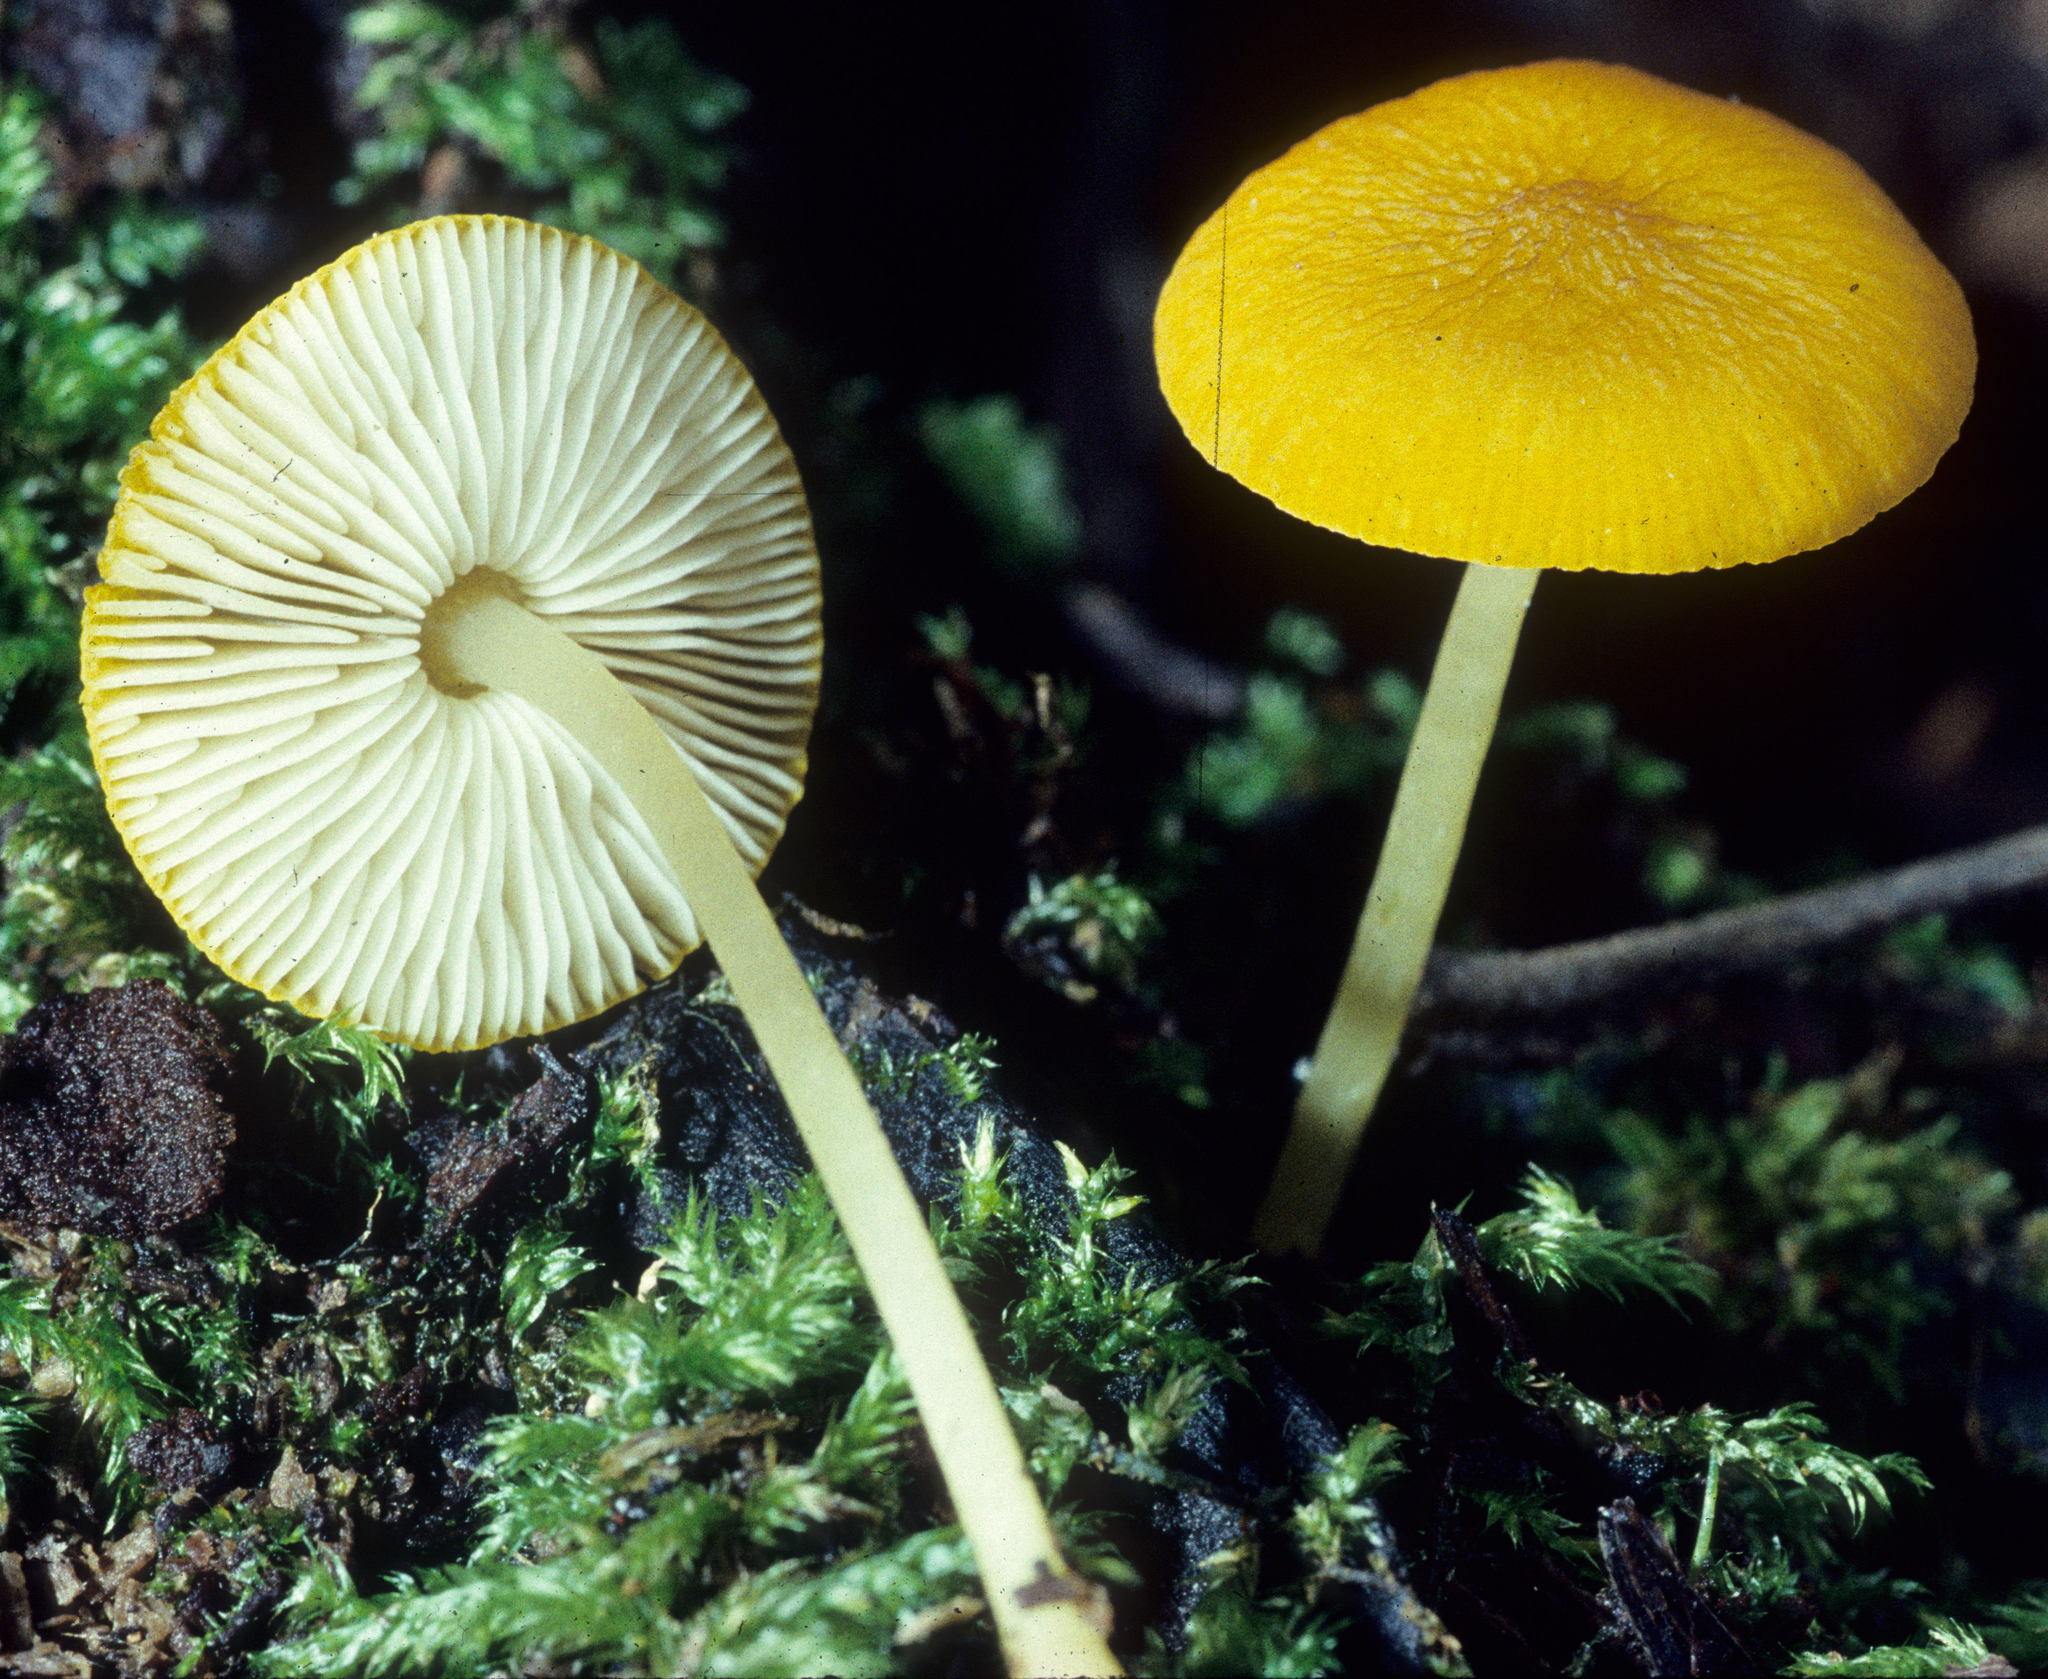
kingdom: Fungi
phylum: Basidiomycota
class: Agaricomycetes
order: Agaricales
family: Pluteaceae
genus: Pluteus
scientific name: Pluteus chrysophlebius
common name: Yellow deer mushroom
